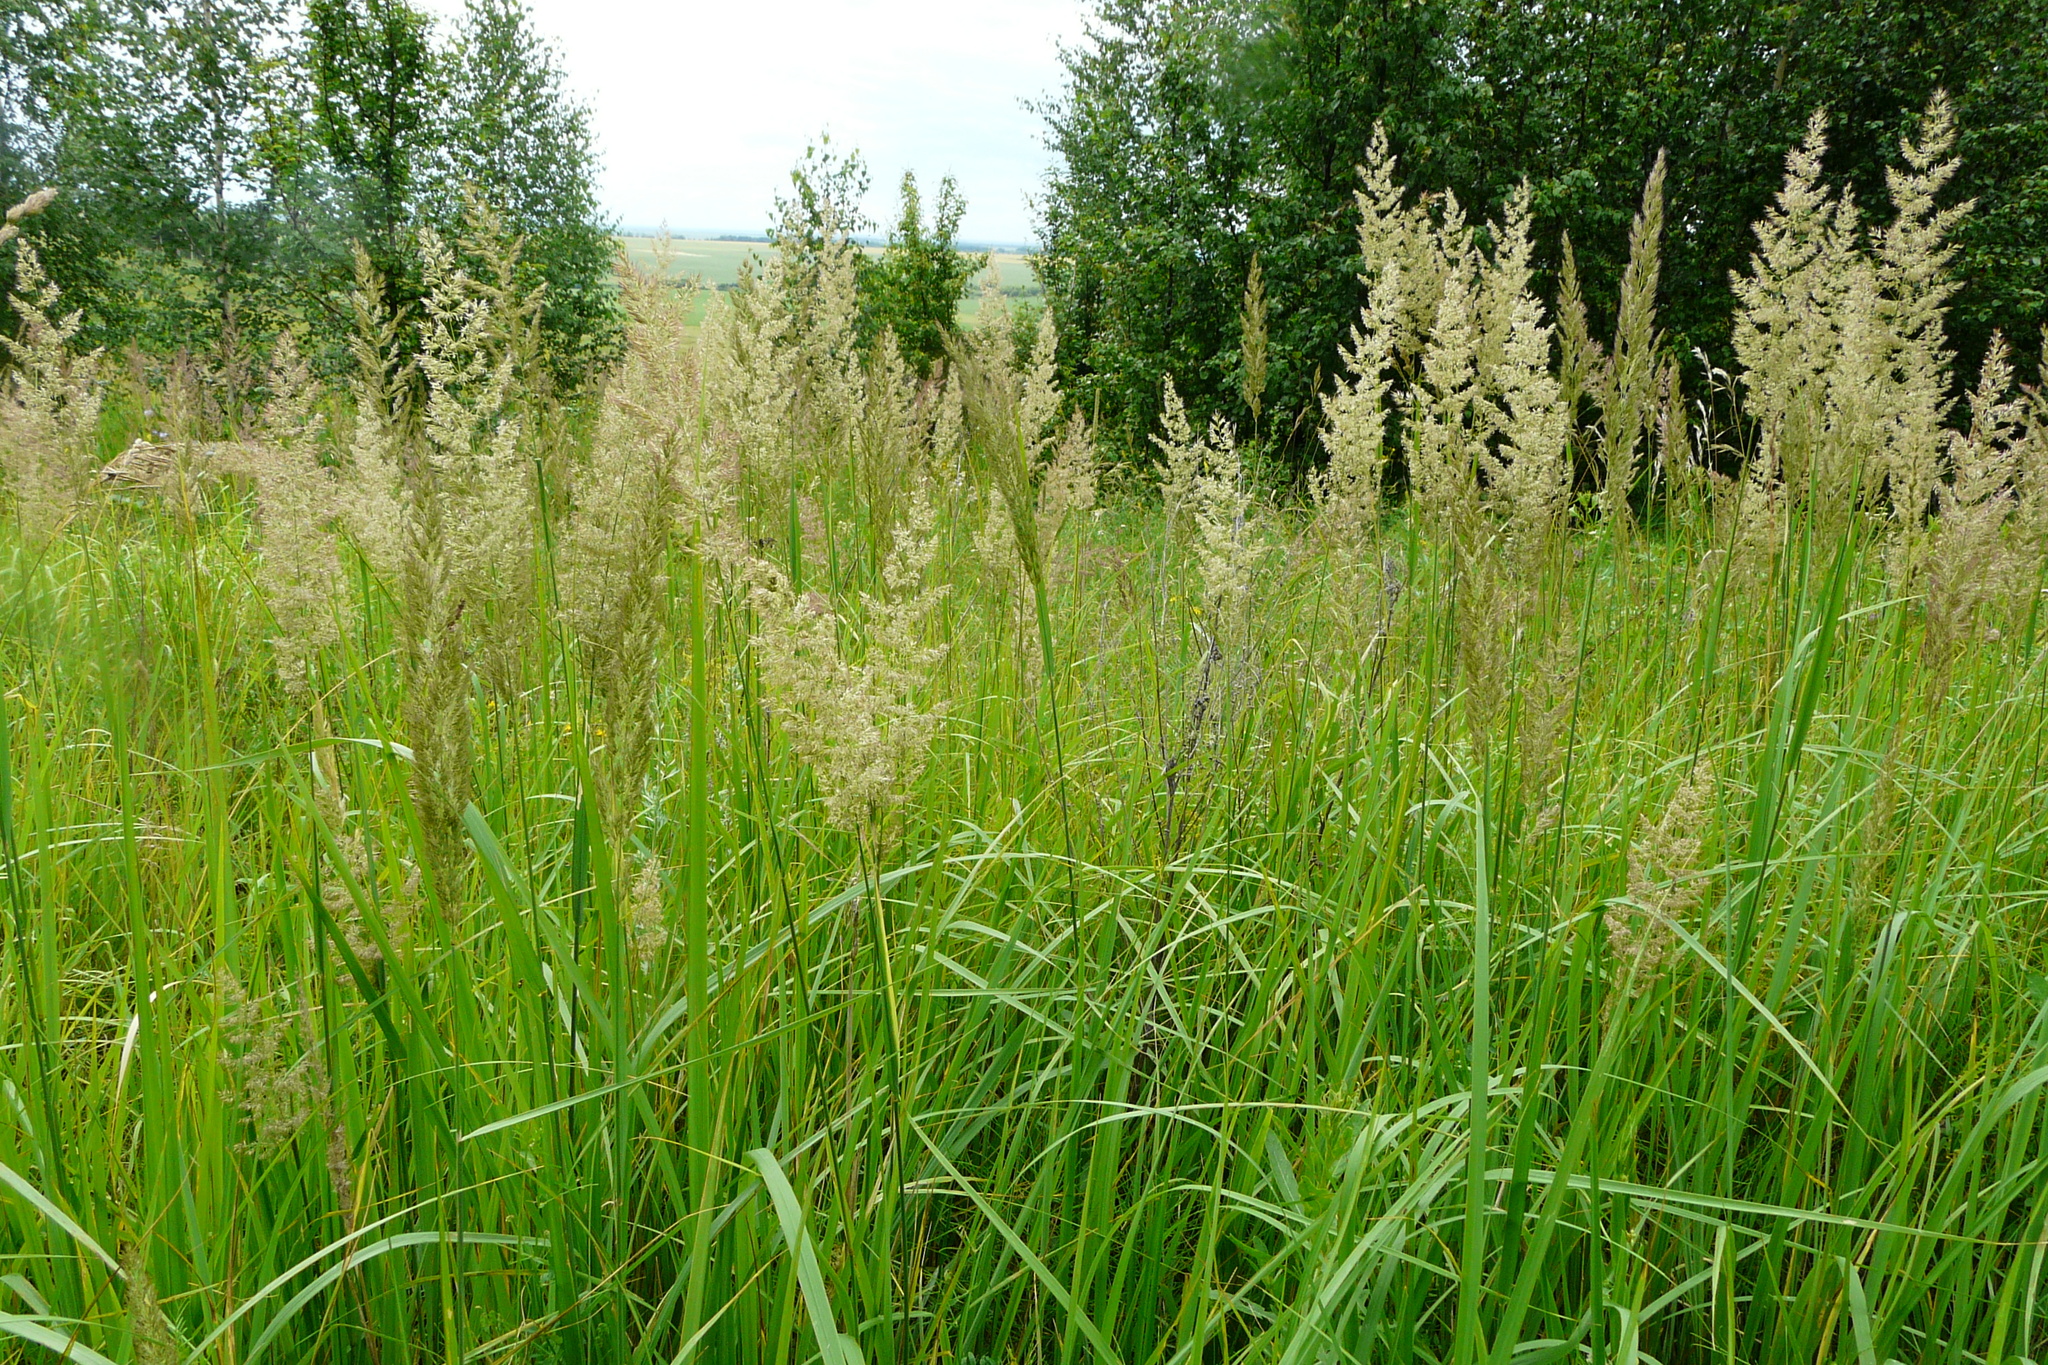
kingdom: Plantae
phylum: Tracheophyta
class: Liliopsida
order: Poales
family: Poaceae
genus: Calamagrostis
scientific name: Calamagrostis epigejos
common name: Wood small-reed
